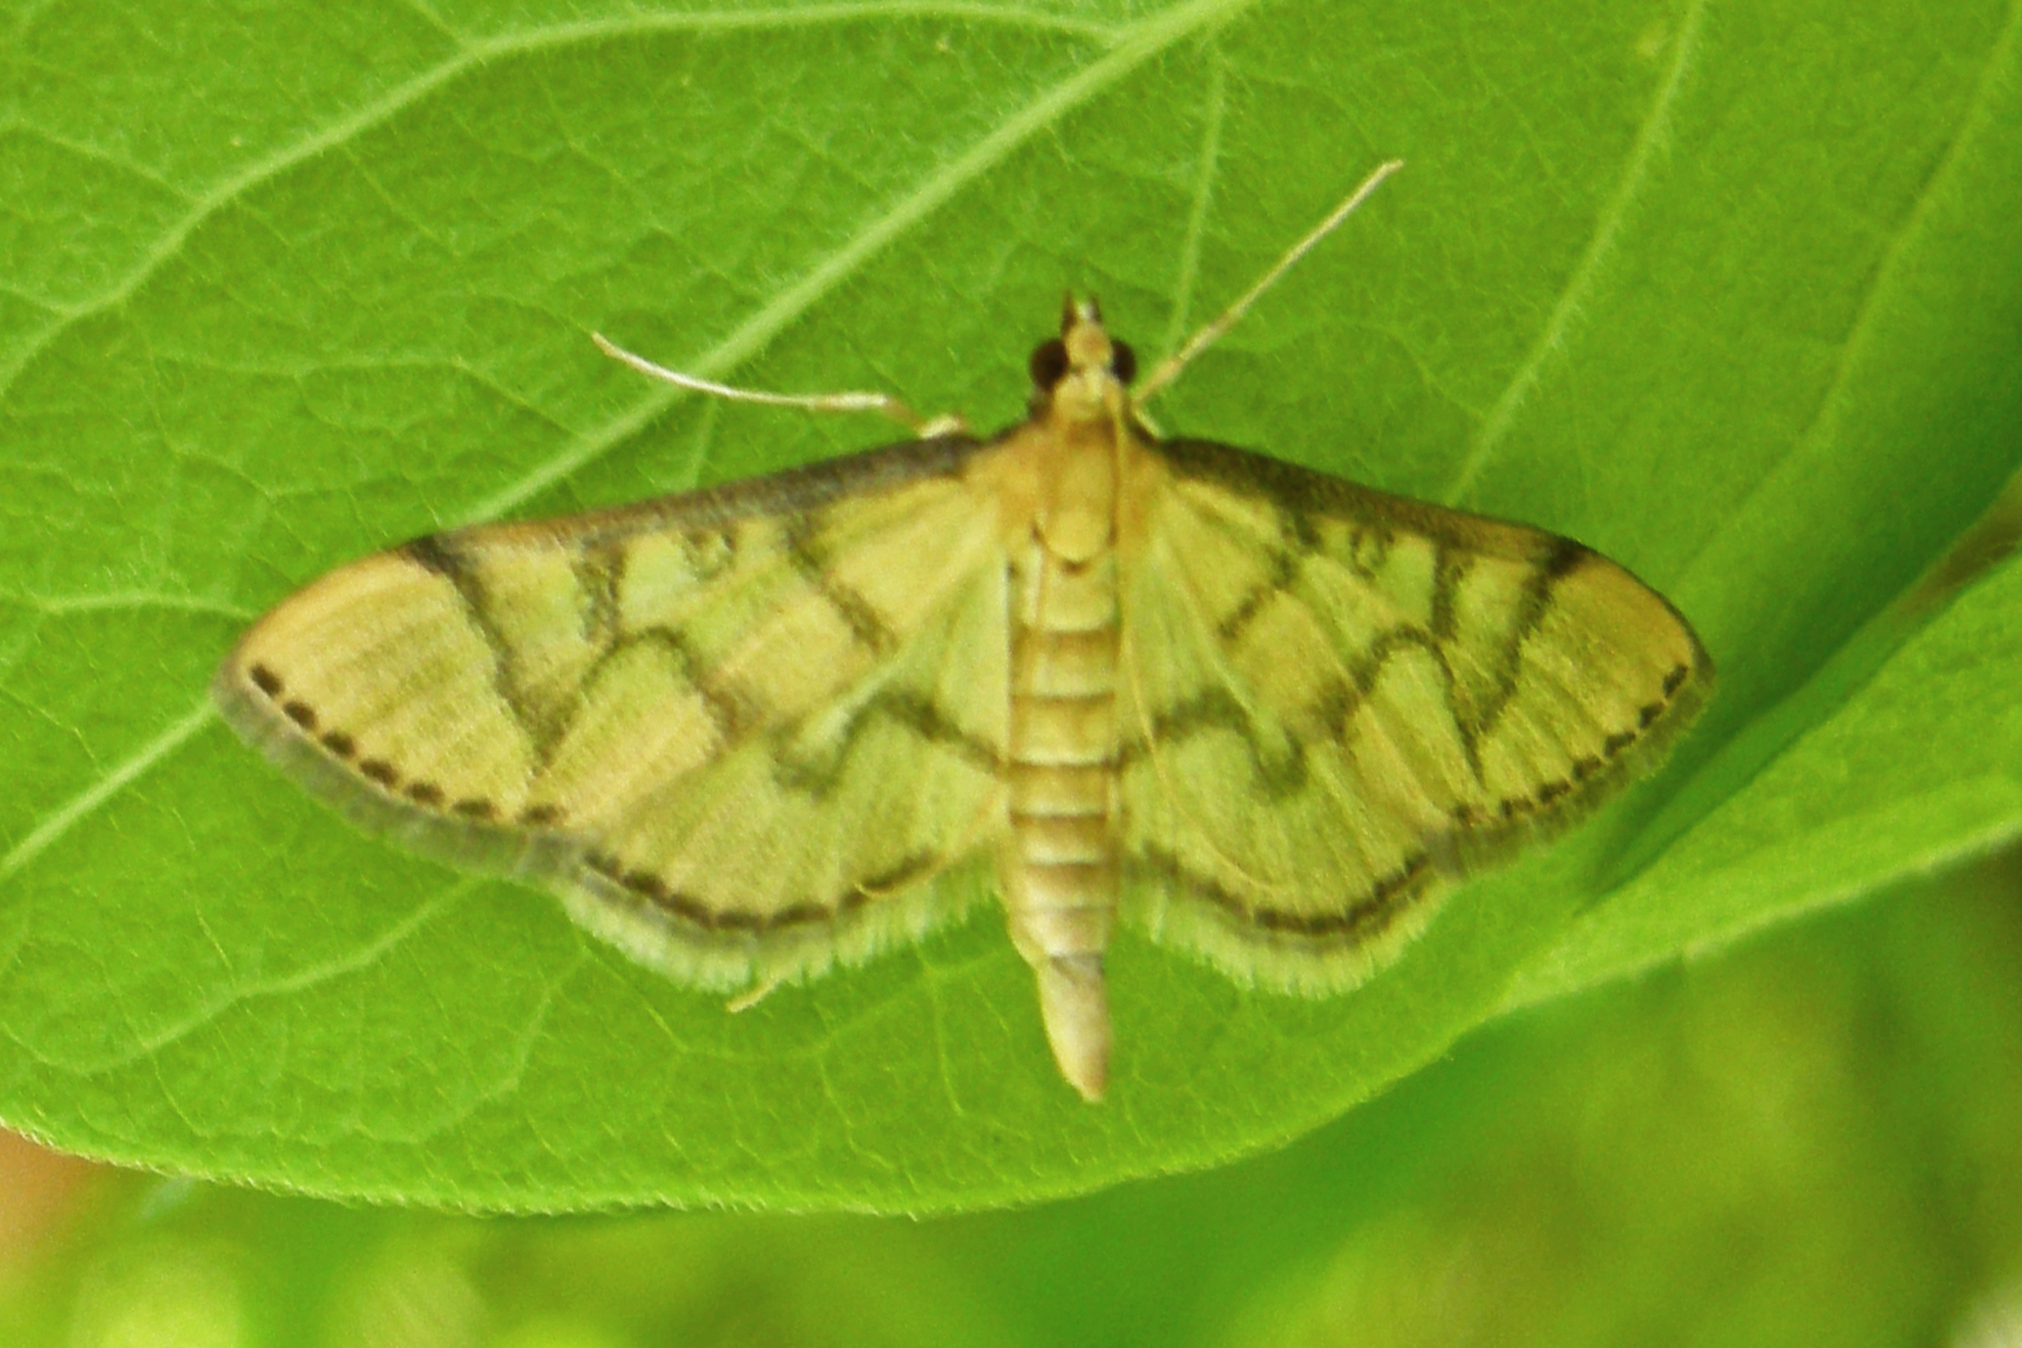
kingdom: Animalia
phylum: Arthropoda
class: Insecta
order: Lepidoptera
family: Crambidae
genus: Lamprosema
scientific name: Lamprosema Blepharomastix ranalis
